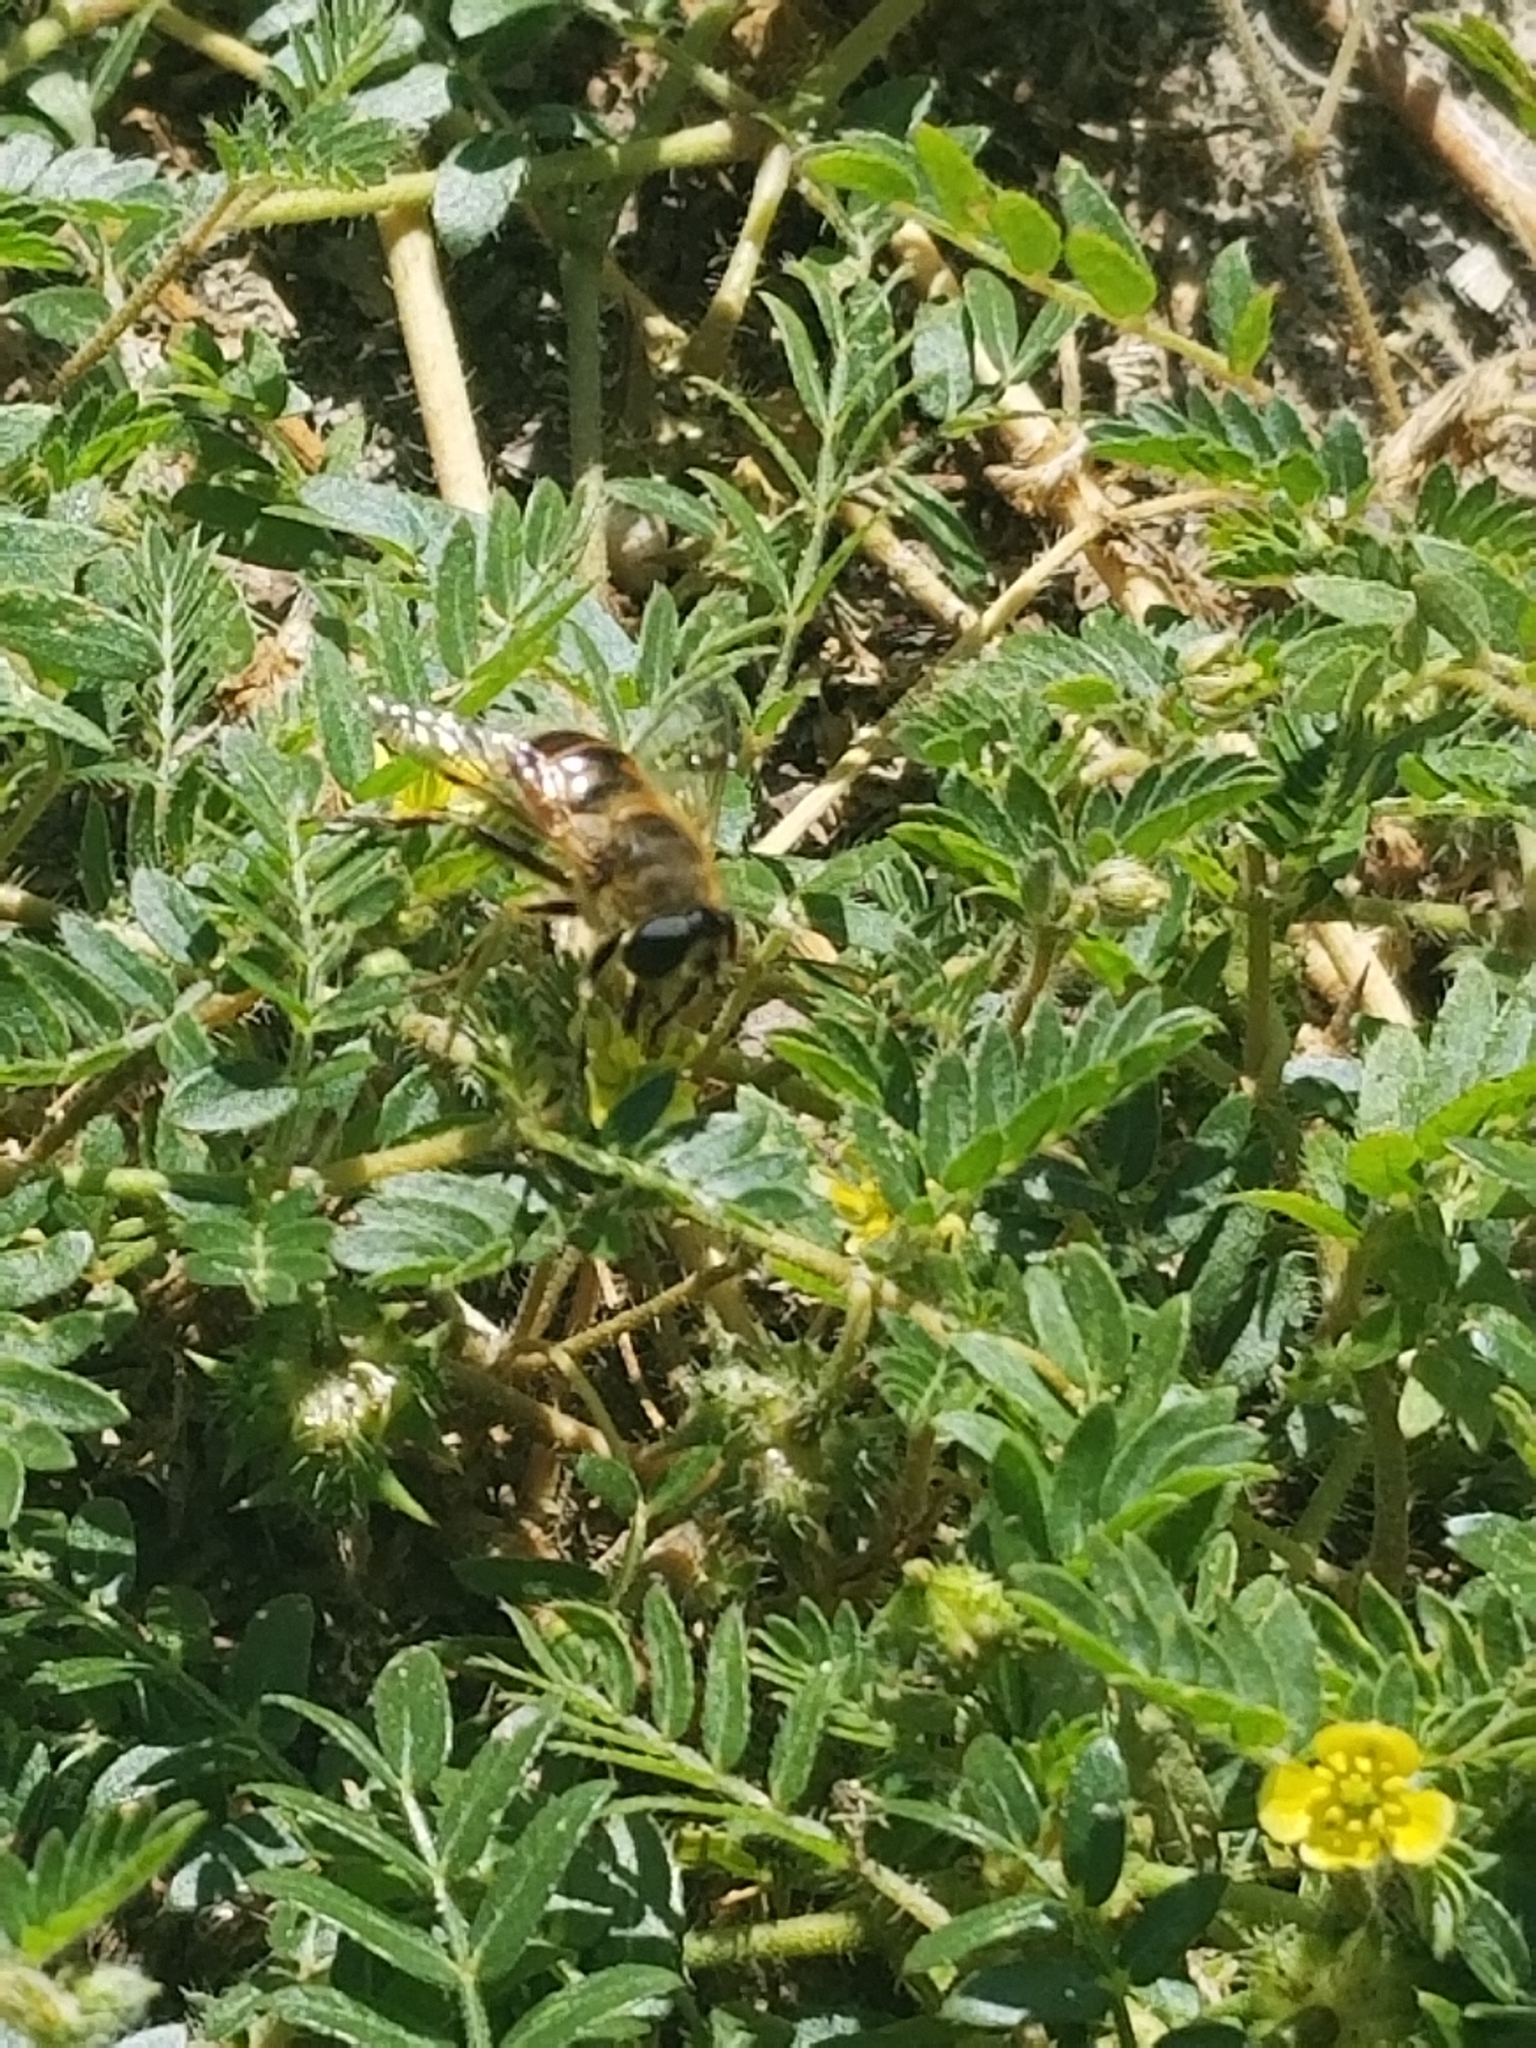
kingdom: Animalia
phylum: Arthropoda
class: Insecta
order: Diptera
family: Syrphidae
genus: Eristalis
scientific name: Eristalis tenax
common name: Drone fly
